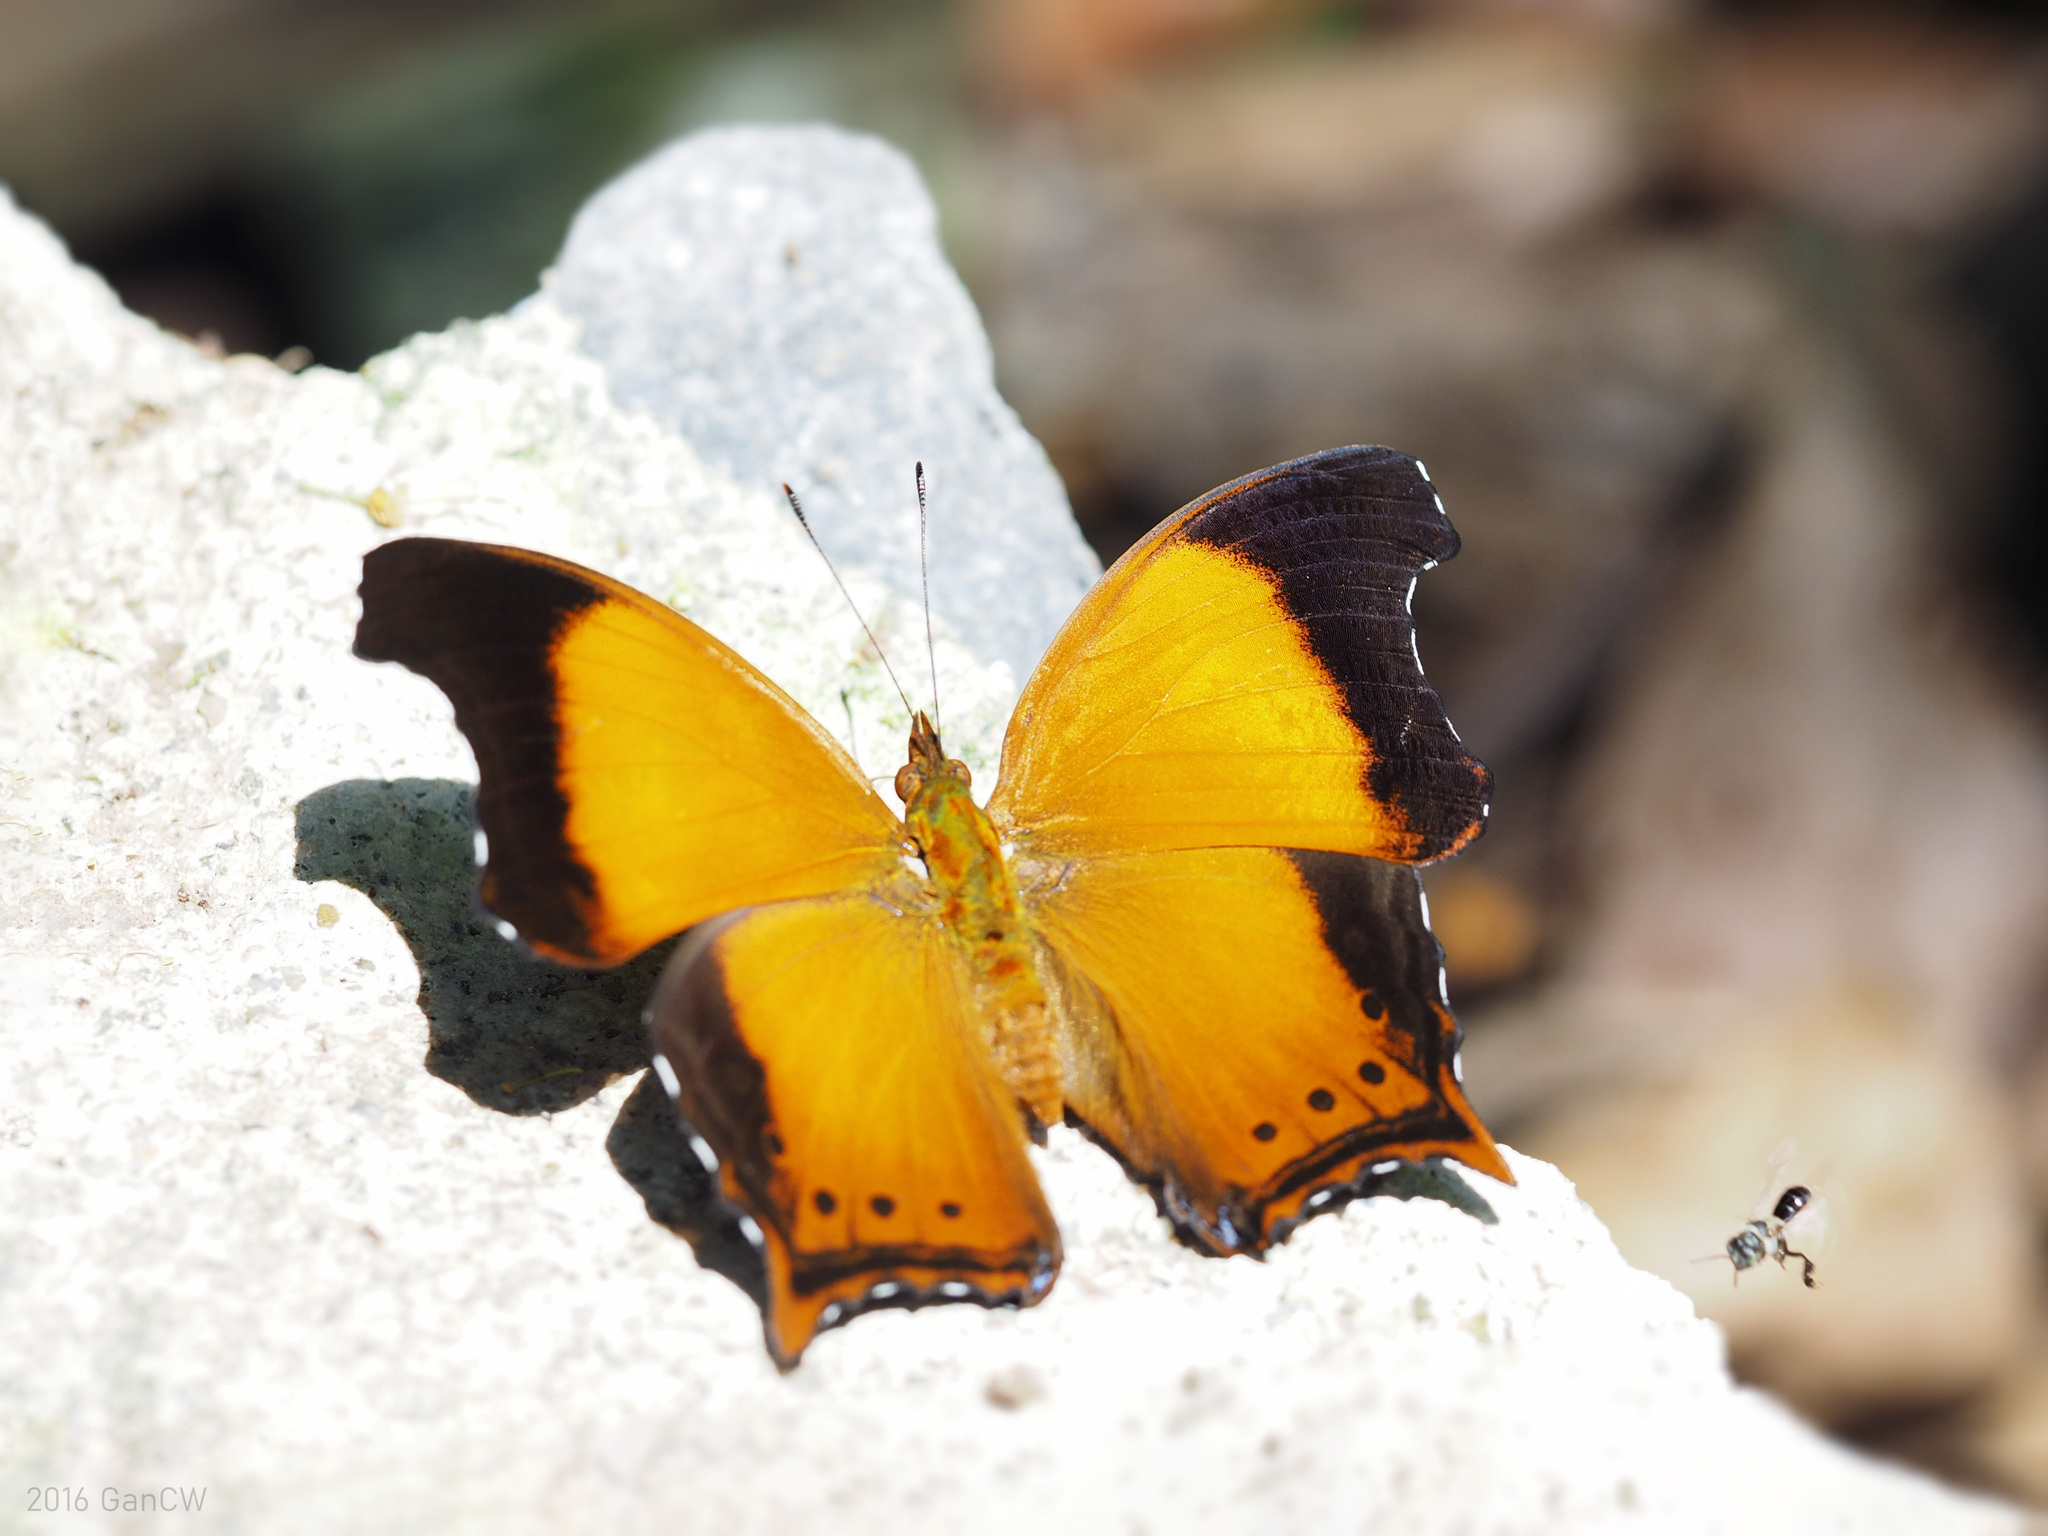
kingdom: Animalia
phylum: Arthropoda
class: Insecta
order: Lepidoptera
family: Nymphalidae
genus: Rhinopalpa
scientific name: Rhinopalpa polynice
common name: Wizard
